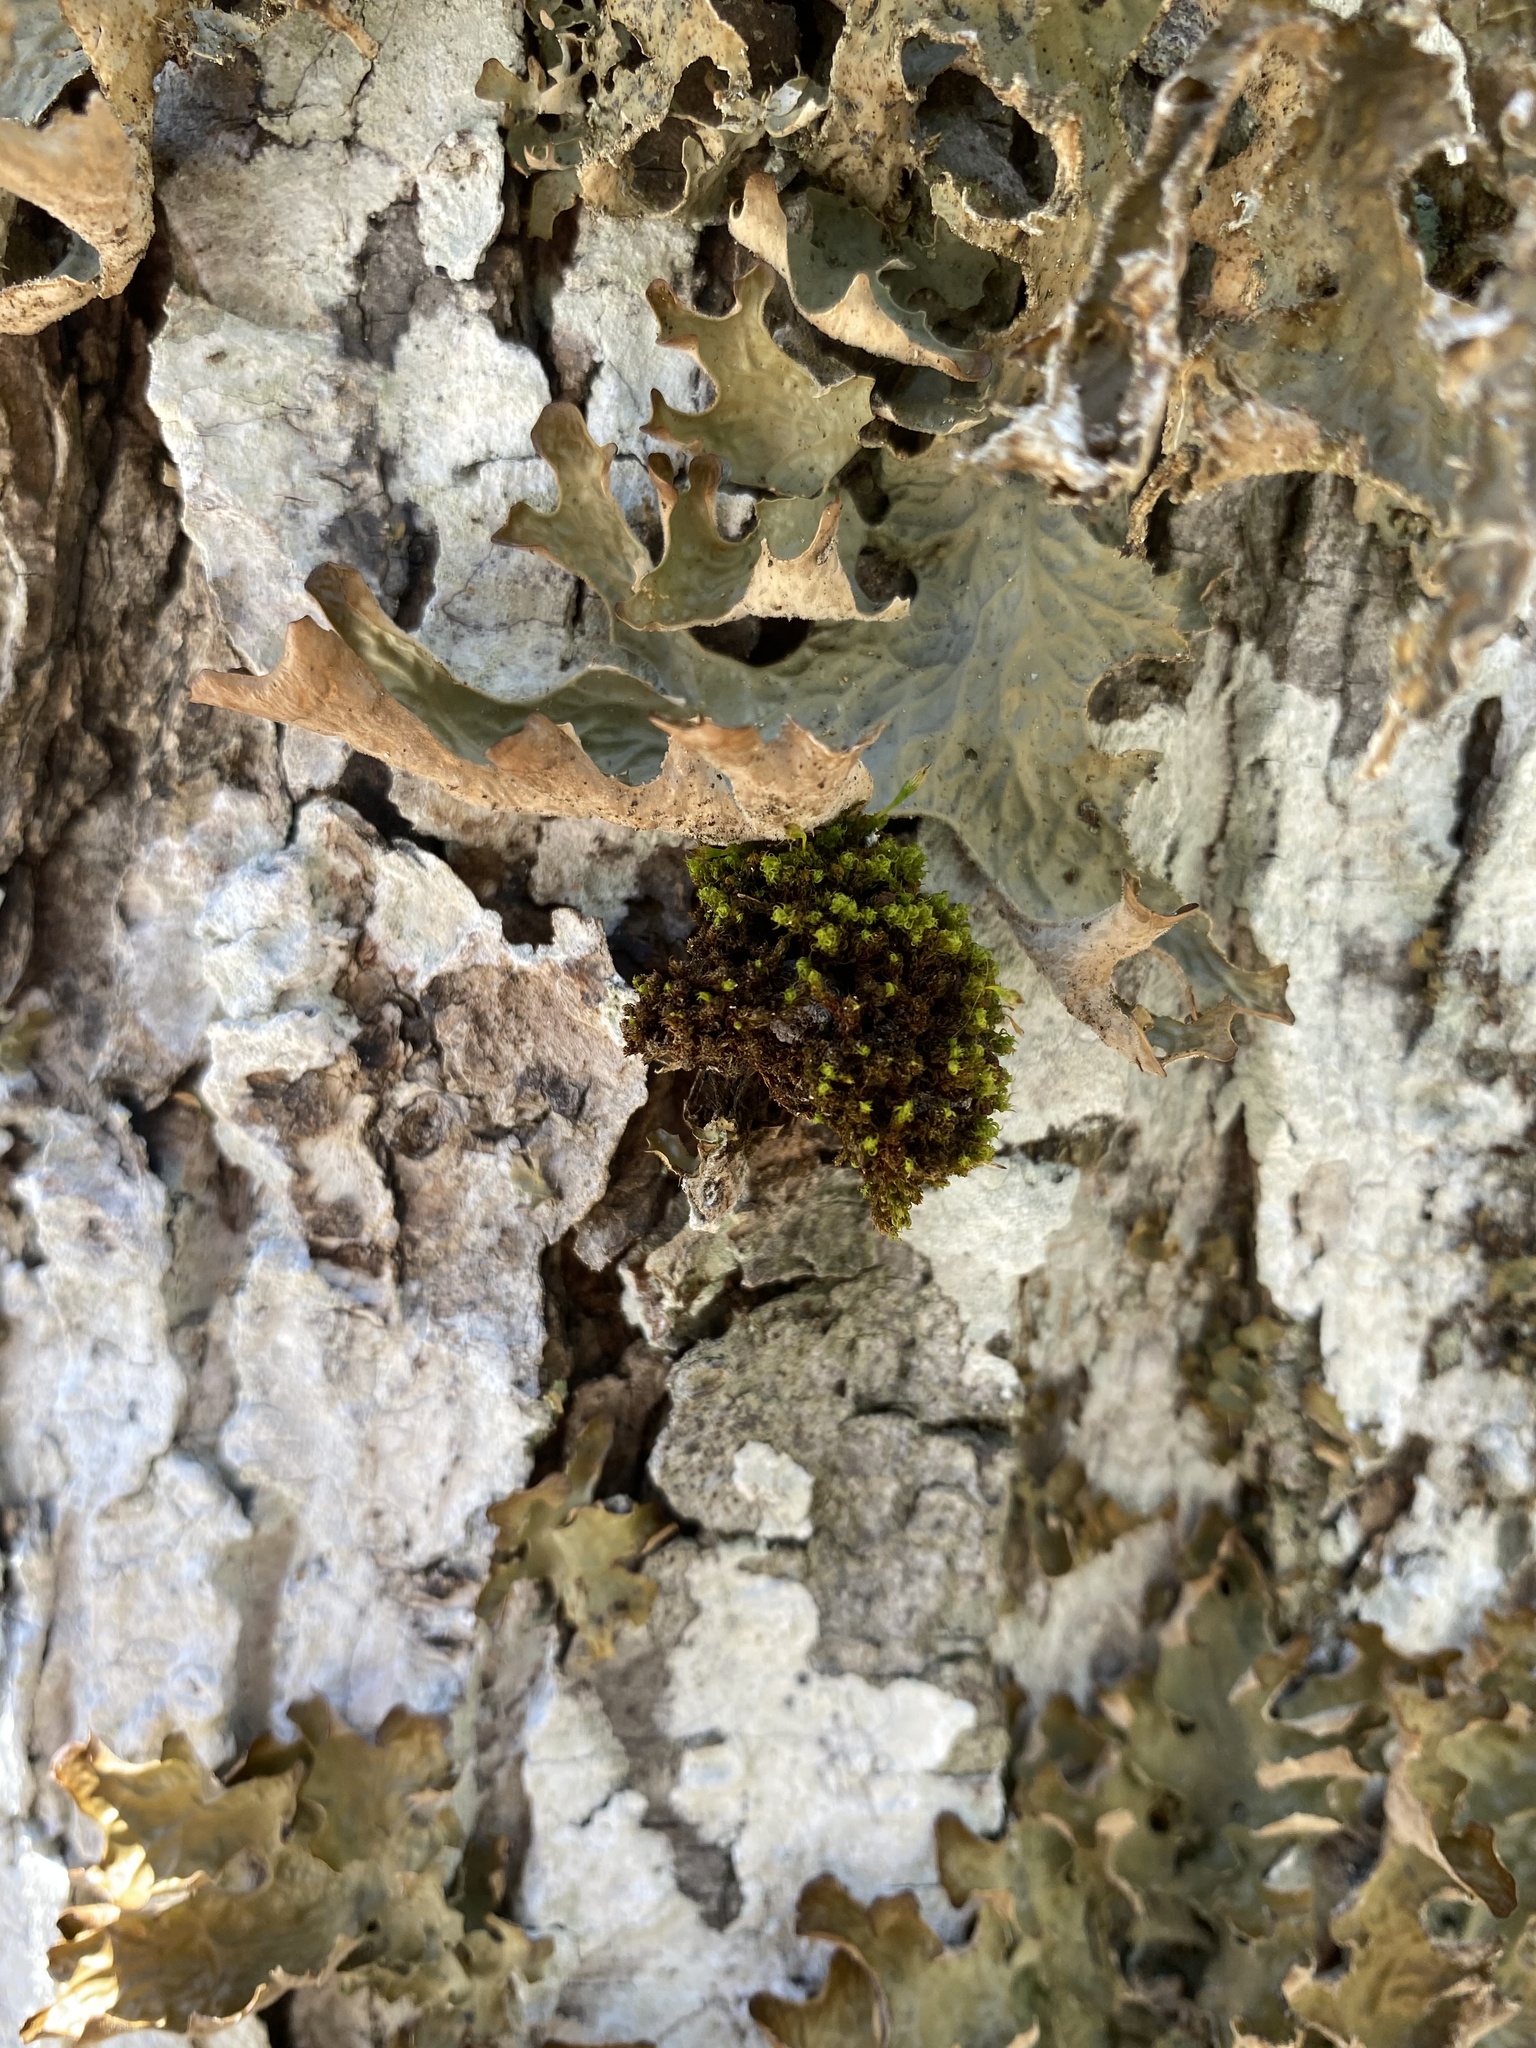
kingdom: Fungi
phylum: Ascomycota
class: Lecanoromycetes
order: Peltigerales
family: Lobariaceae
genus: Lobaria
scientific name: Lobaria pulmonaria
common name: Lungwort
